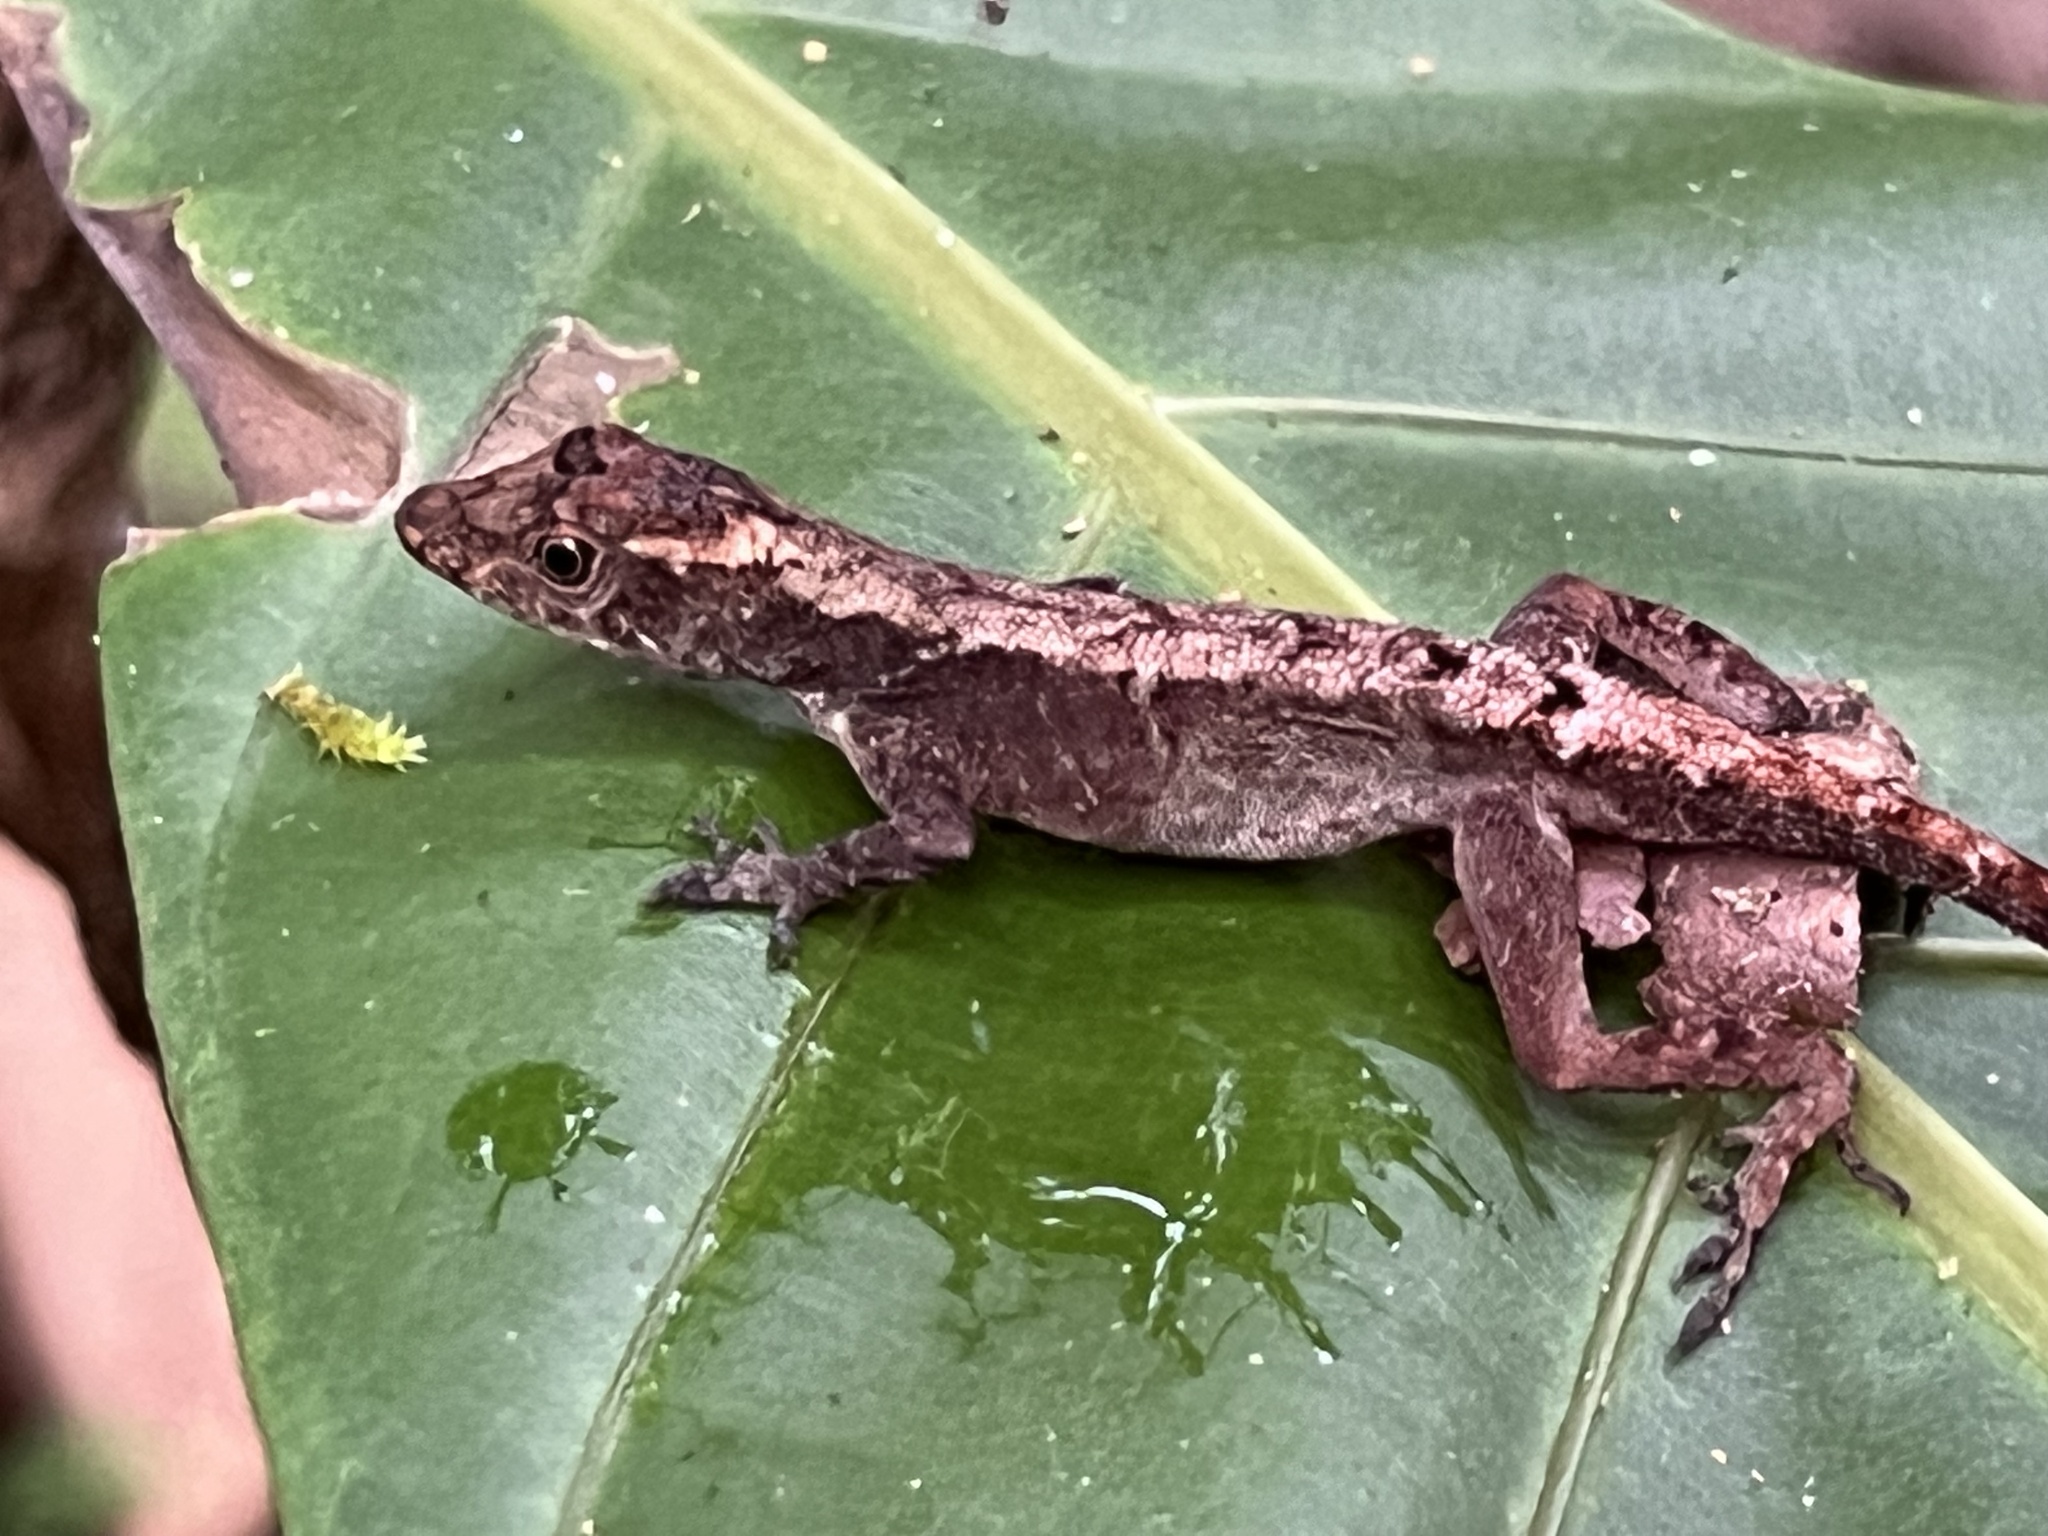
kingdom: Animalia
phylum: Chordata
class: Squamata
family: Dactyloidae
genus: Anolis
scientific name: Anolis humilis
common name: Humble anole
